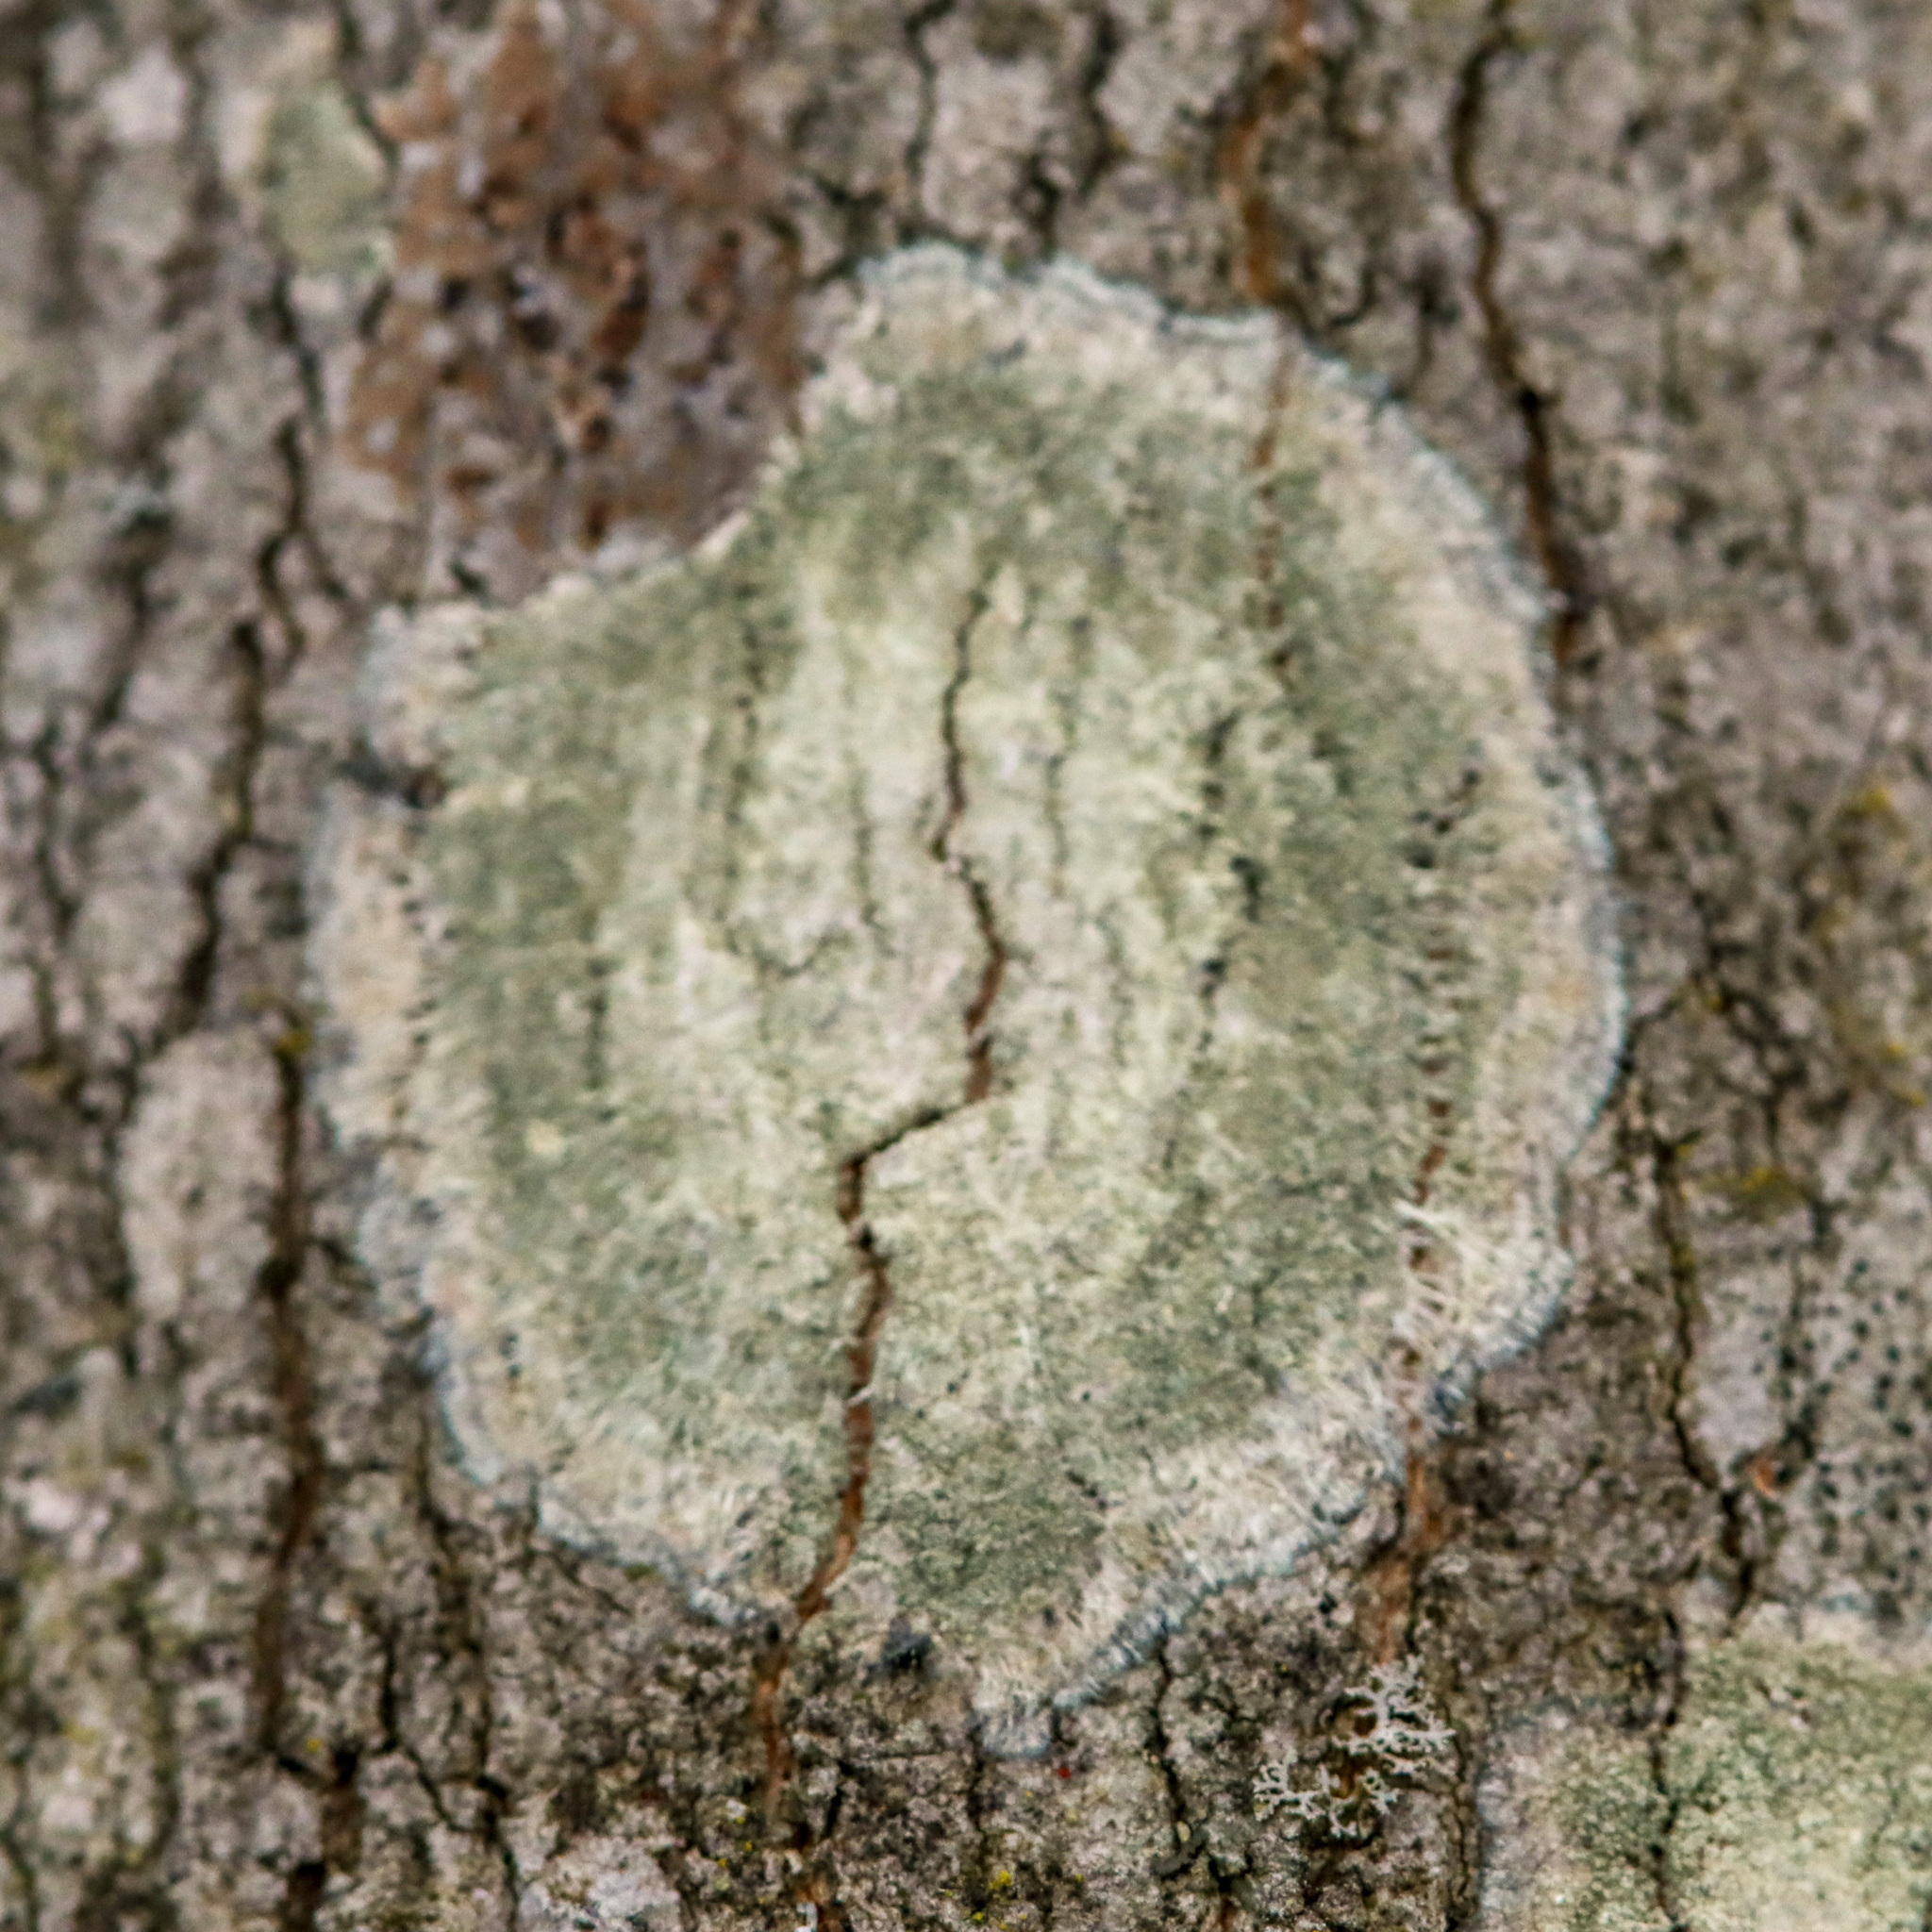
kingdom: Fungi
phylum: Ascomycota
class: Lecanoromycetes
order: Pertusariales
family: Pertusariaceae
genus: Verseghya
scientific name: Verseghya thysanophora
